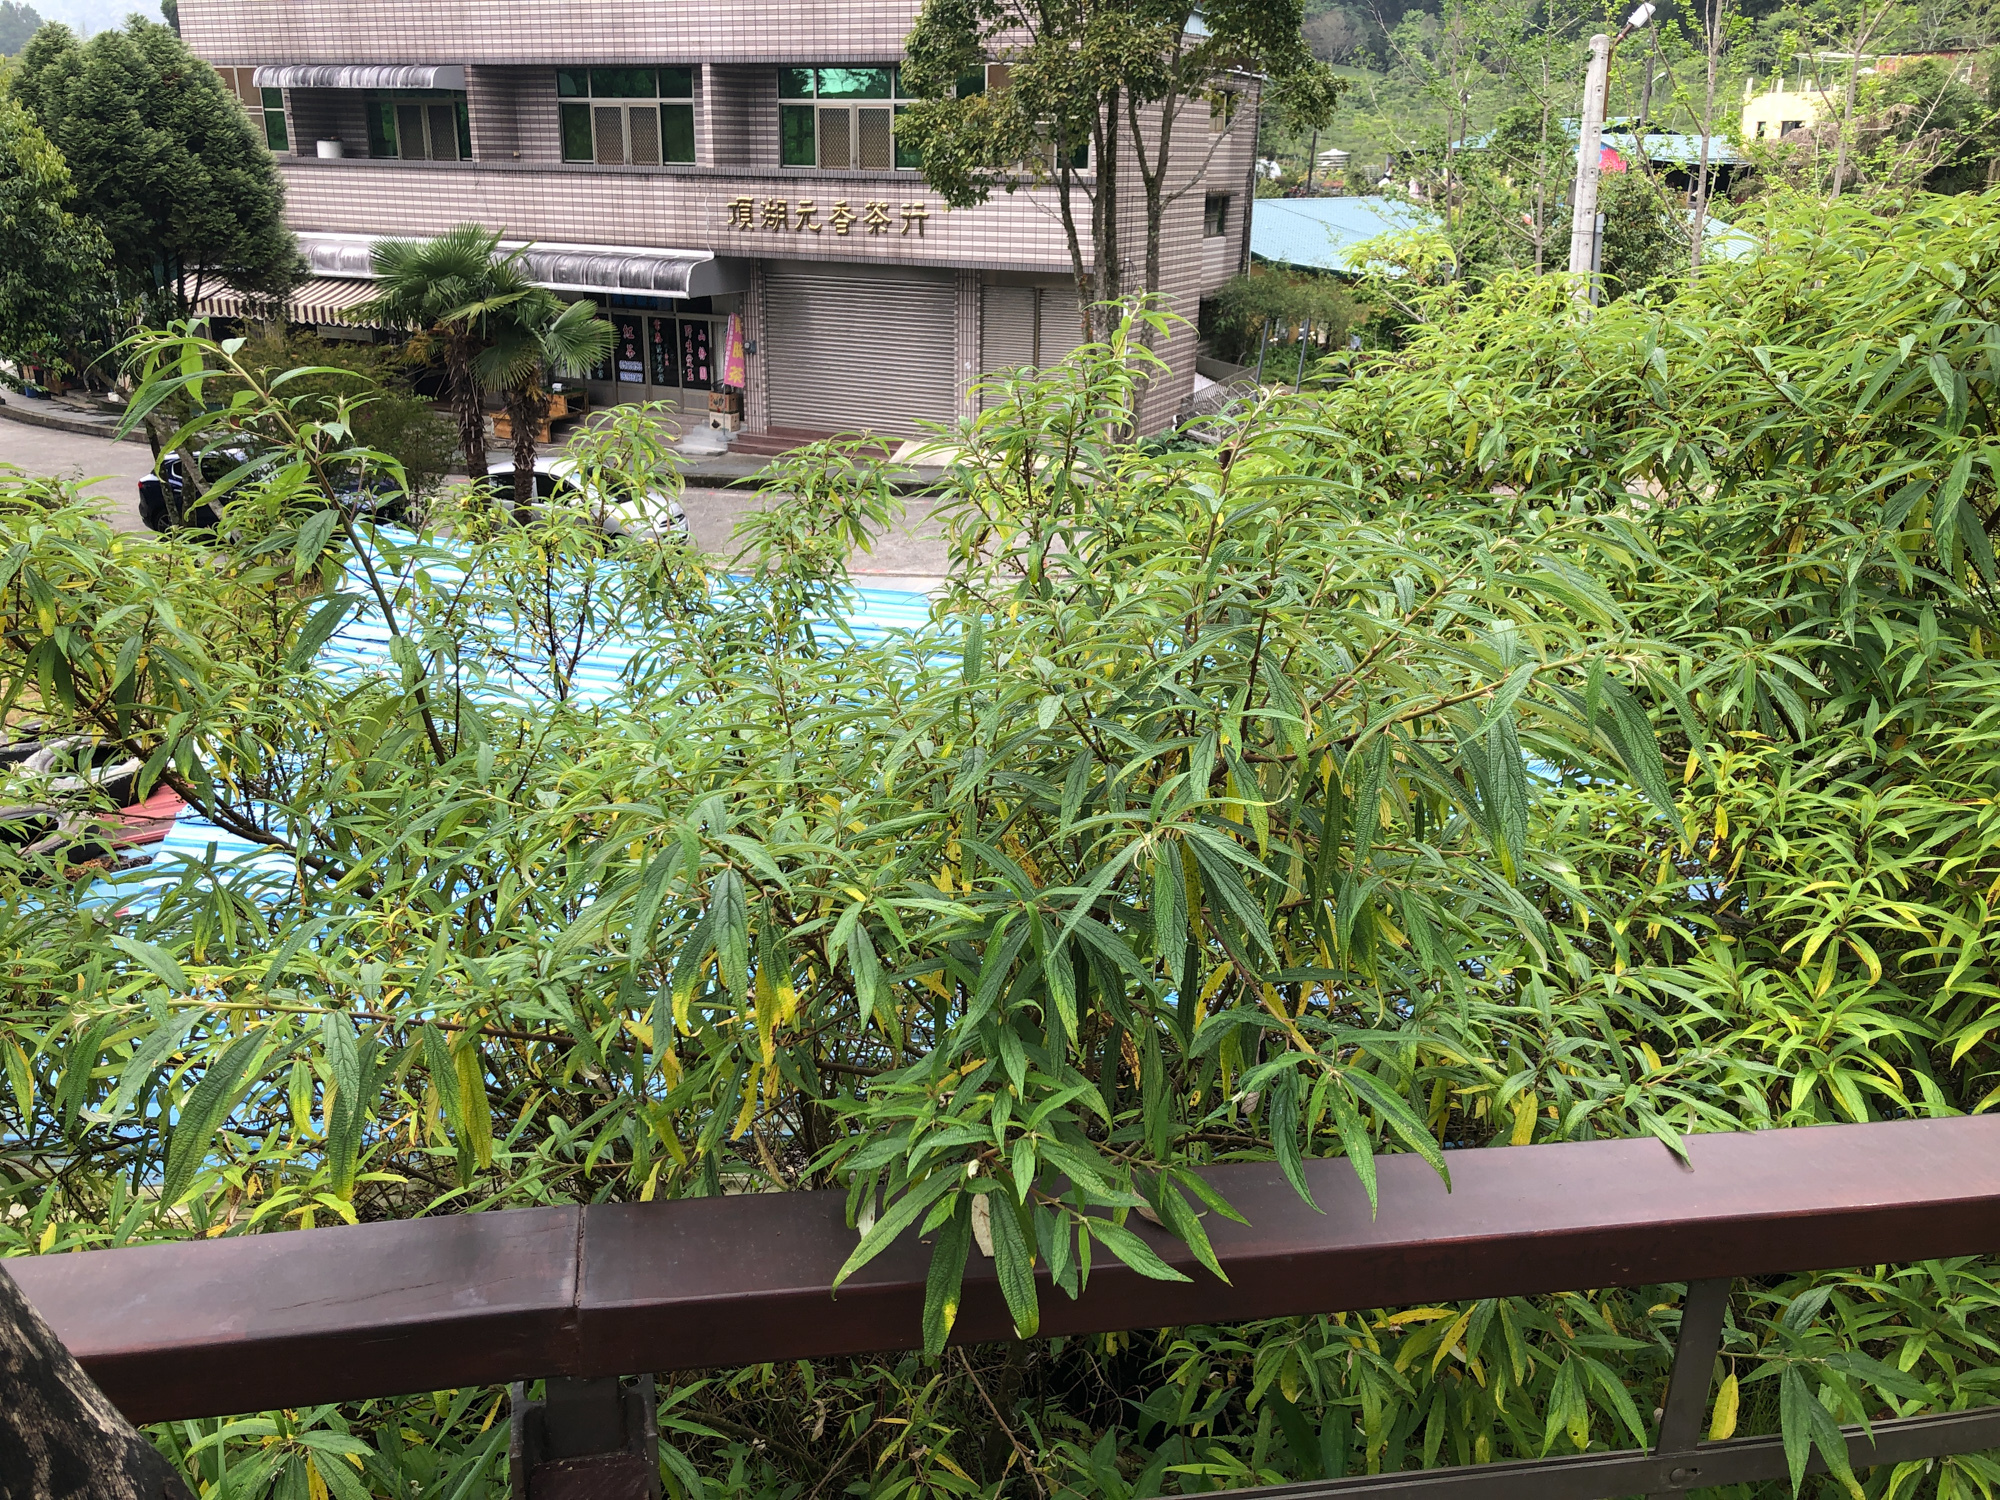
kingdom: Plantae
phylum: Tracheophyta
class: Magnoliopsida
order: Rosales
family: Urticaceae
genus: Debregeasia
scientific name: Debregeasia orientalis
